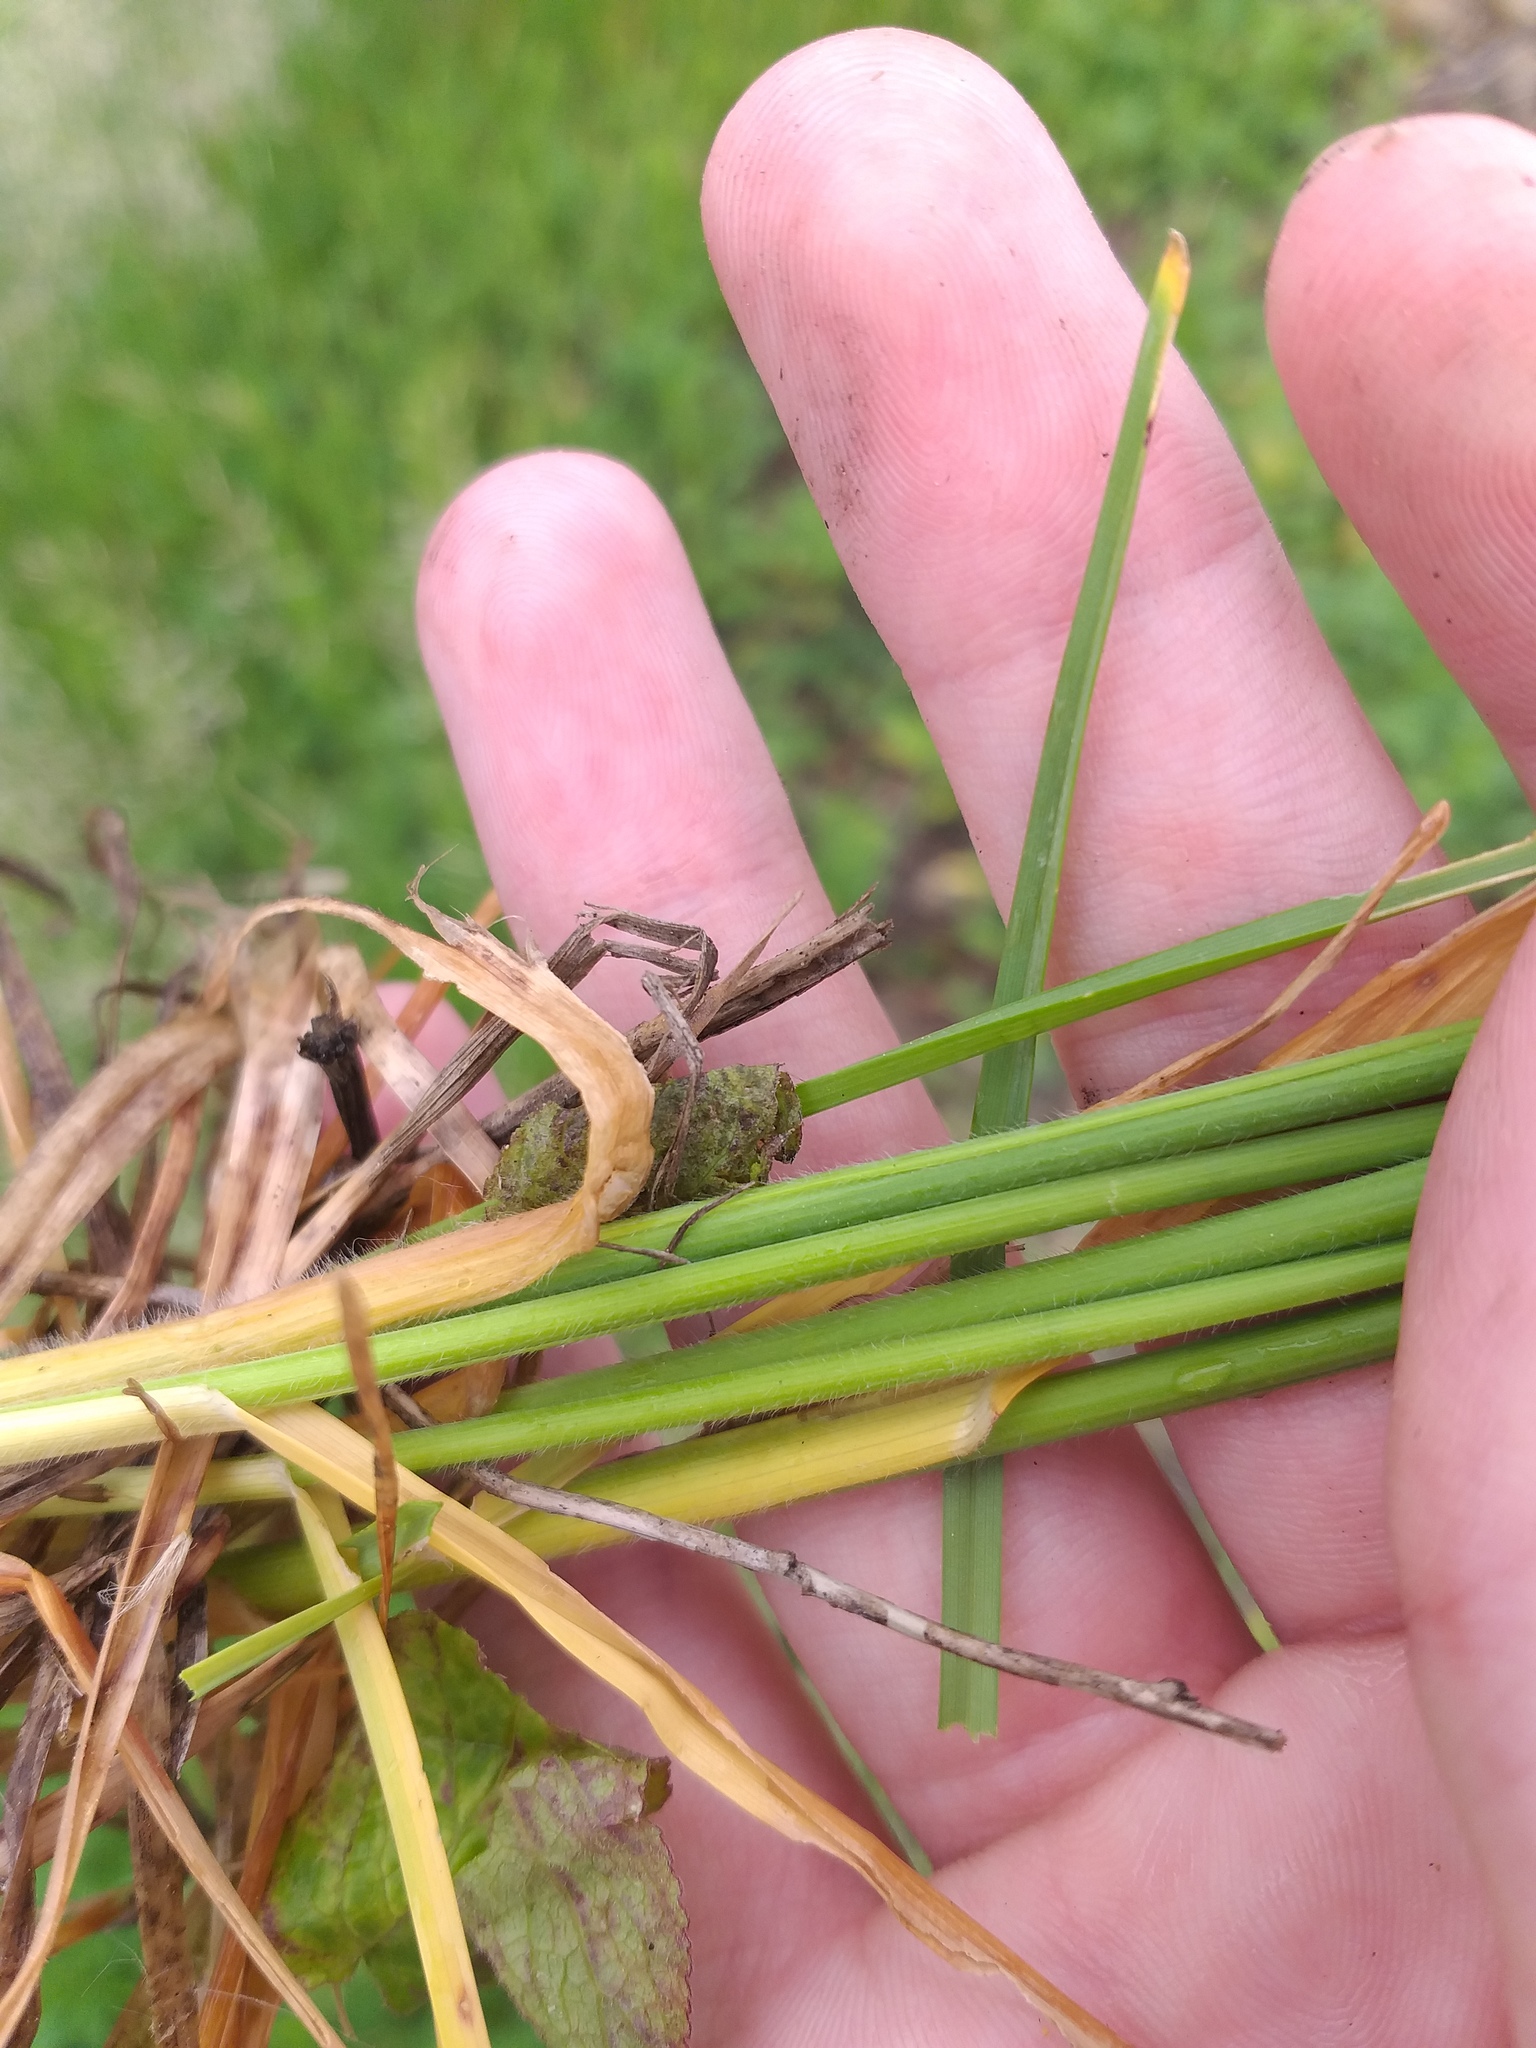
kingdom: Plantae
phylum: Tracheophyta
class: Liliopsida
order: Poales
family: Poaceae
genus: Avenula
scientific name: Avenula pubescens
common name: Downy alpine oatgrass
